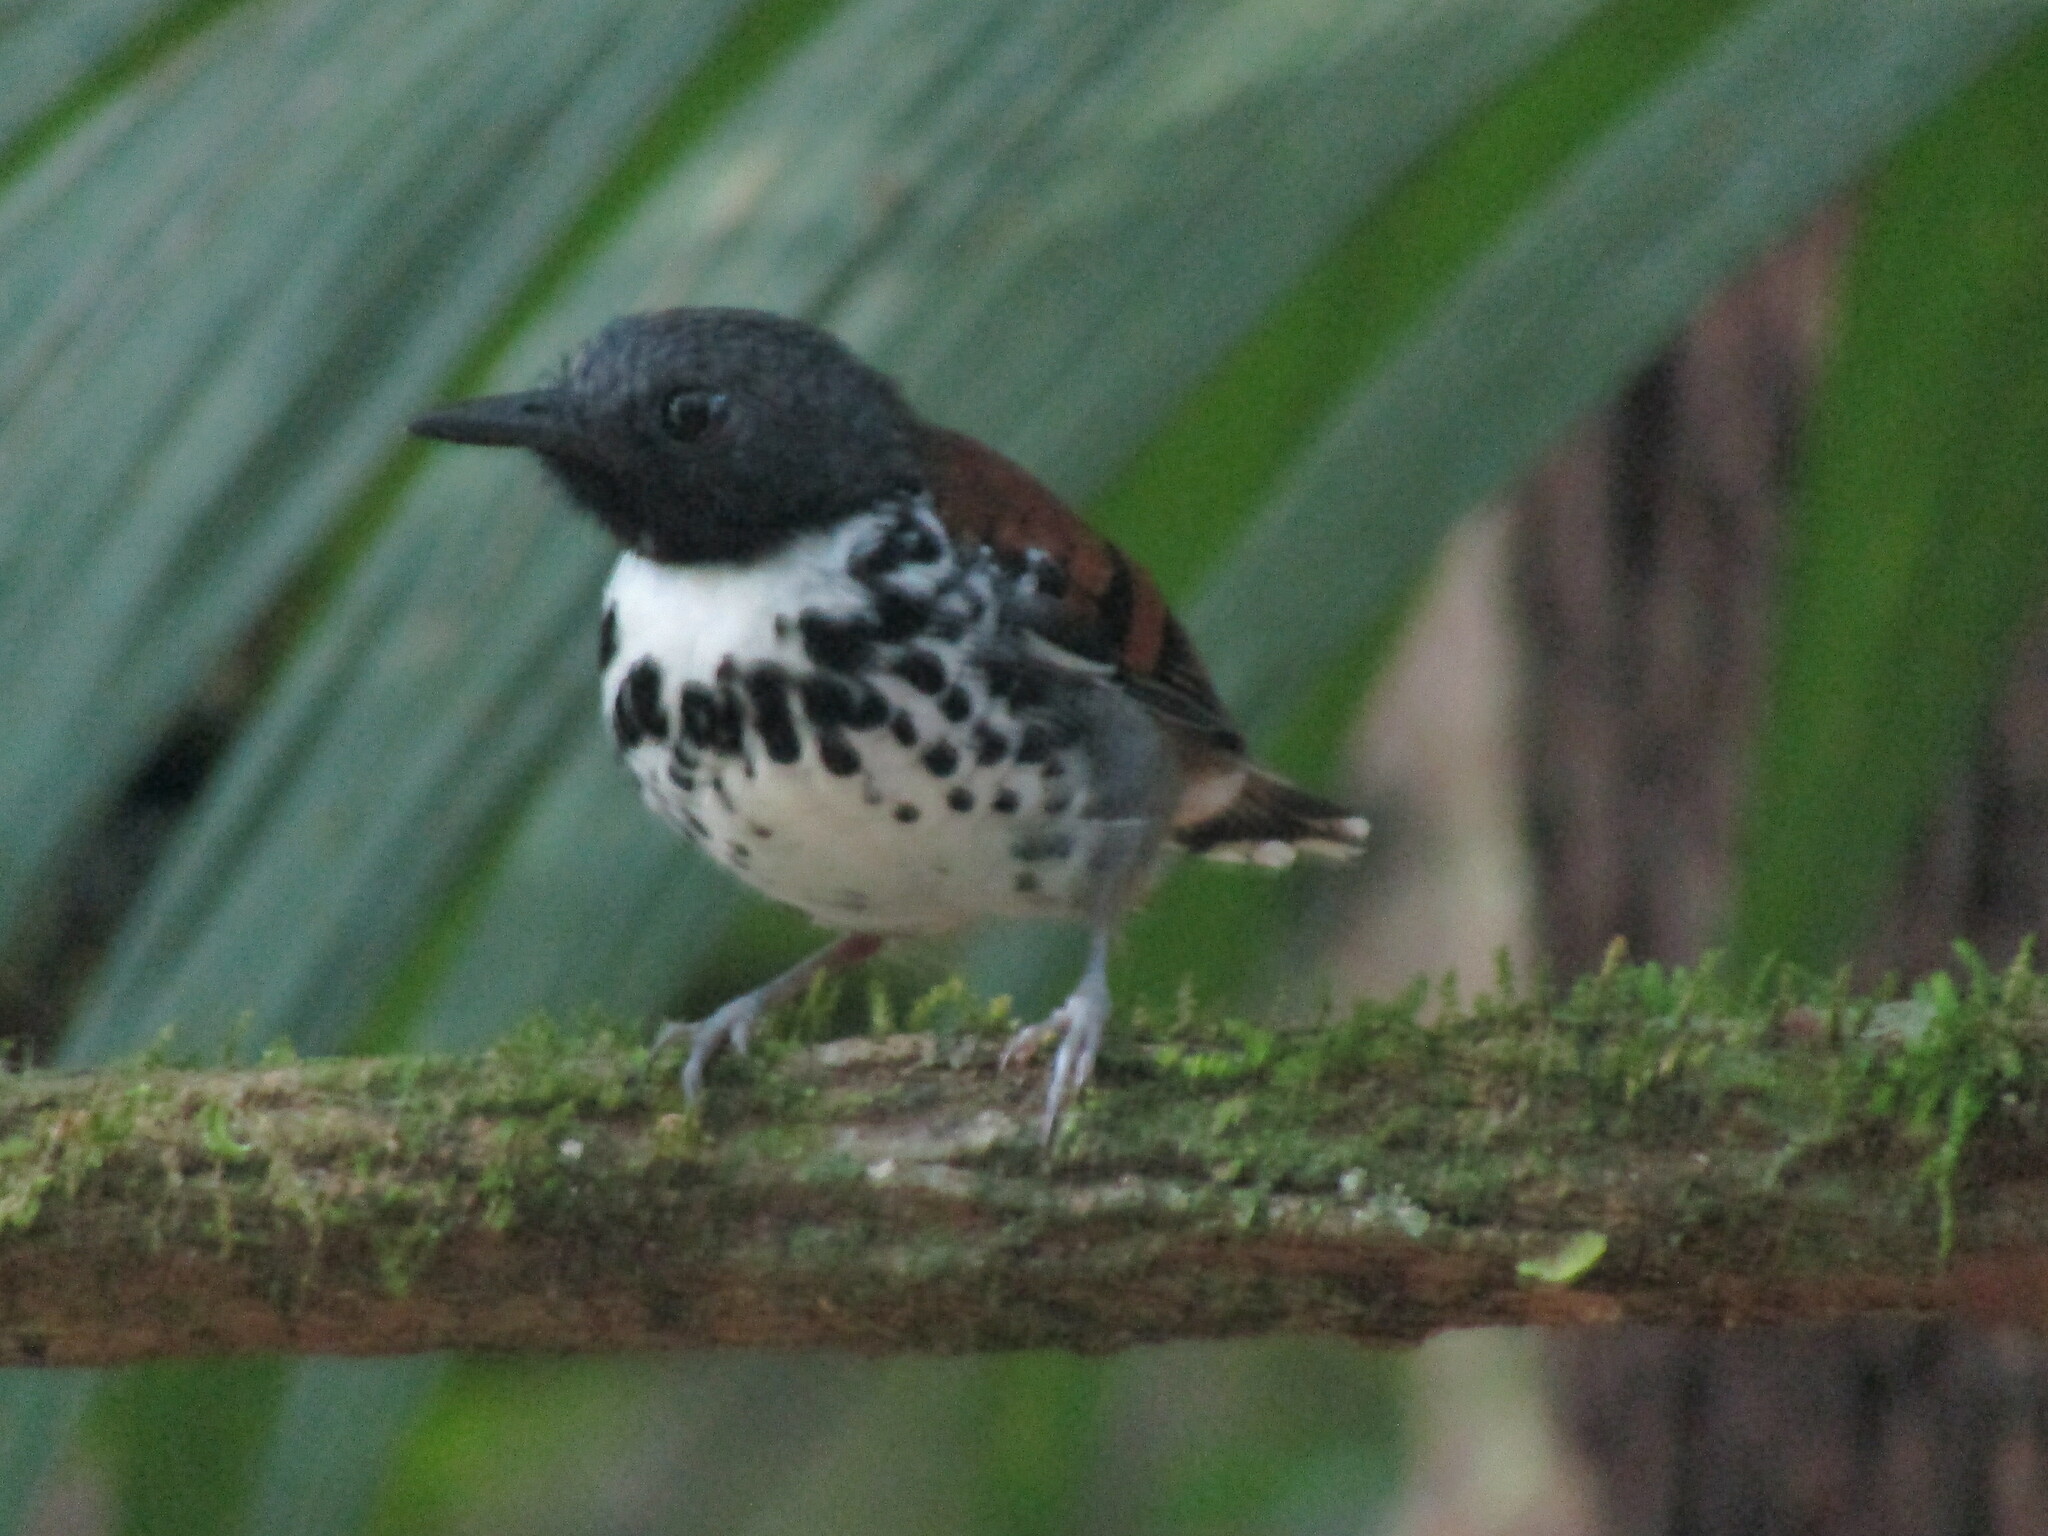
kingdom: Animalia
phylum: Chordata
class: Aves
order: Passeriformes
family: Thamnophilidae
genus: Hylophylax
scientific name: Hylophylax naevioides
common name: Spotted antbird
